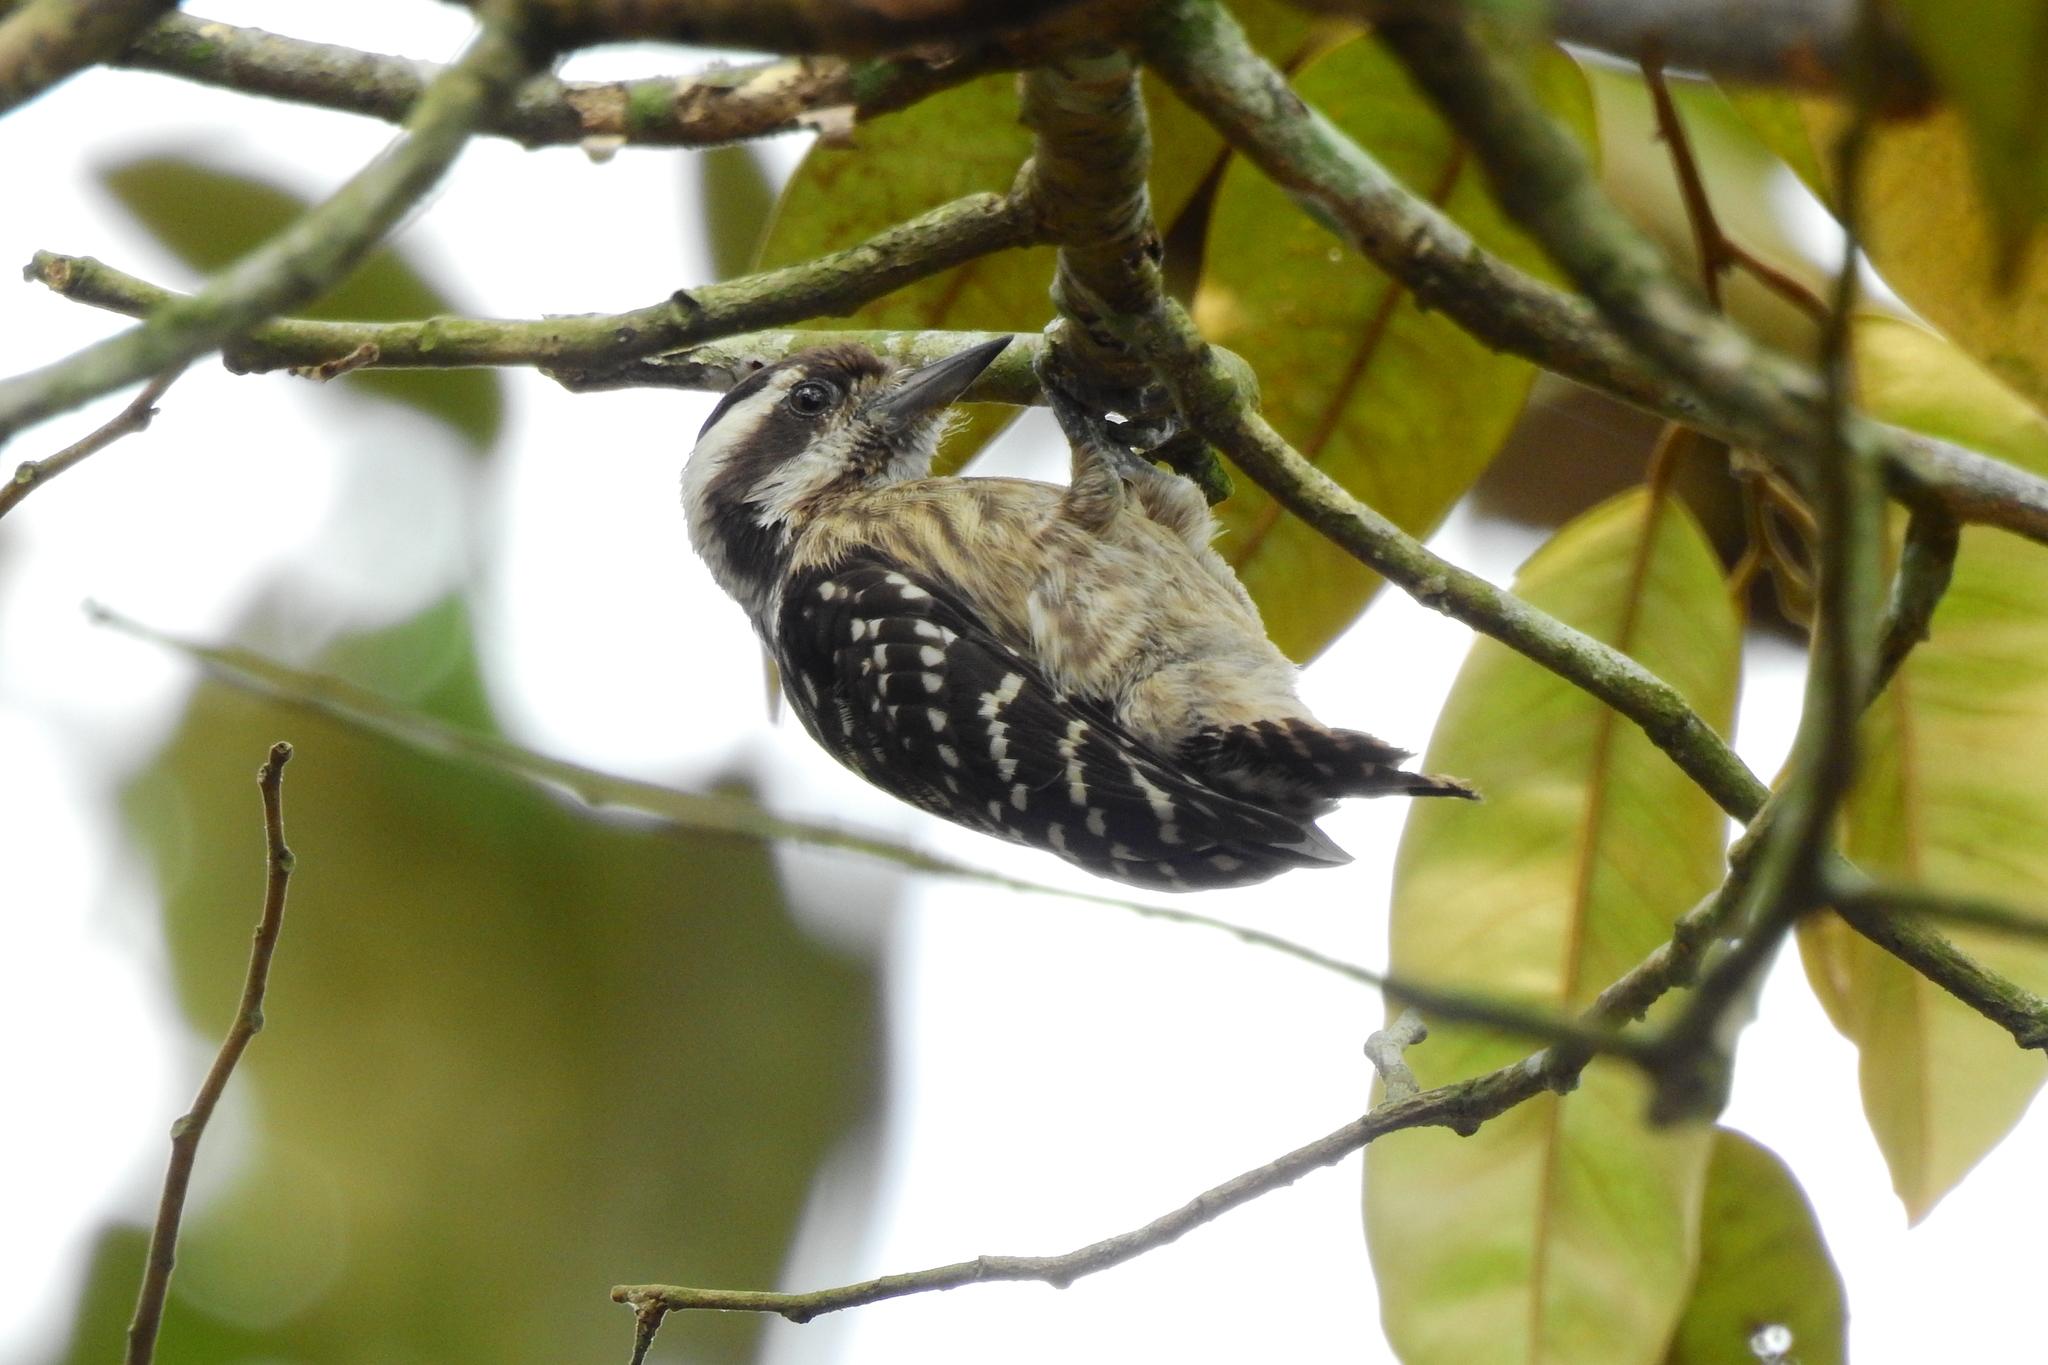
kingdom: Animalia
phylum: Chordata
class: Aves
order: Piciformes
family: Picidae
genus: Yungipicus
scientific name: Yungipicus moluccensis
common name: Sunda pygmy woodpecker
